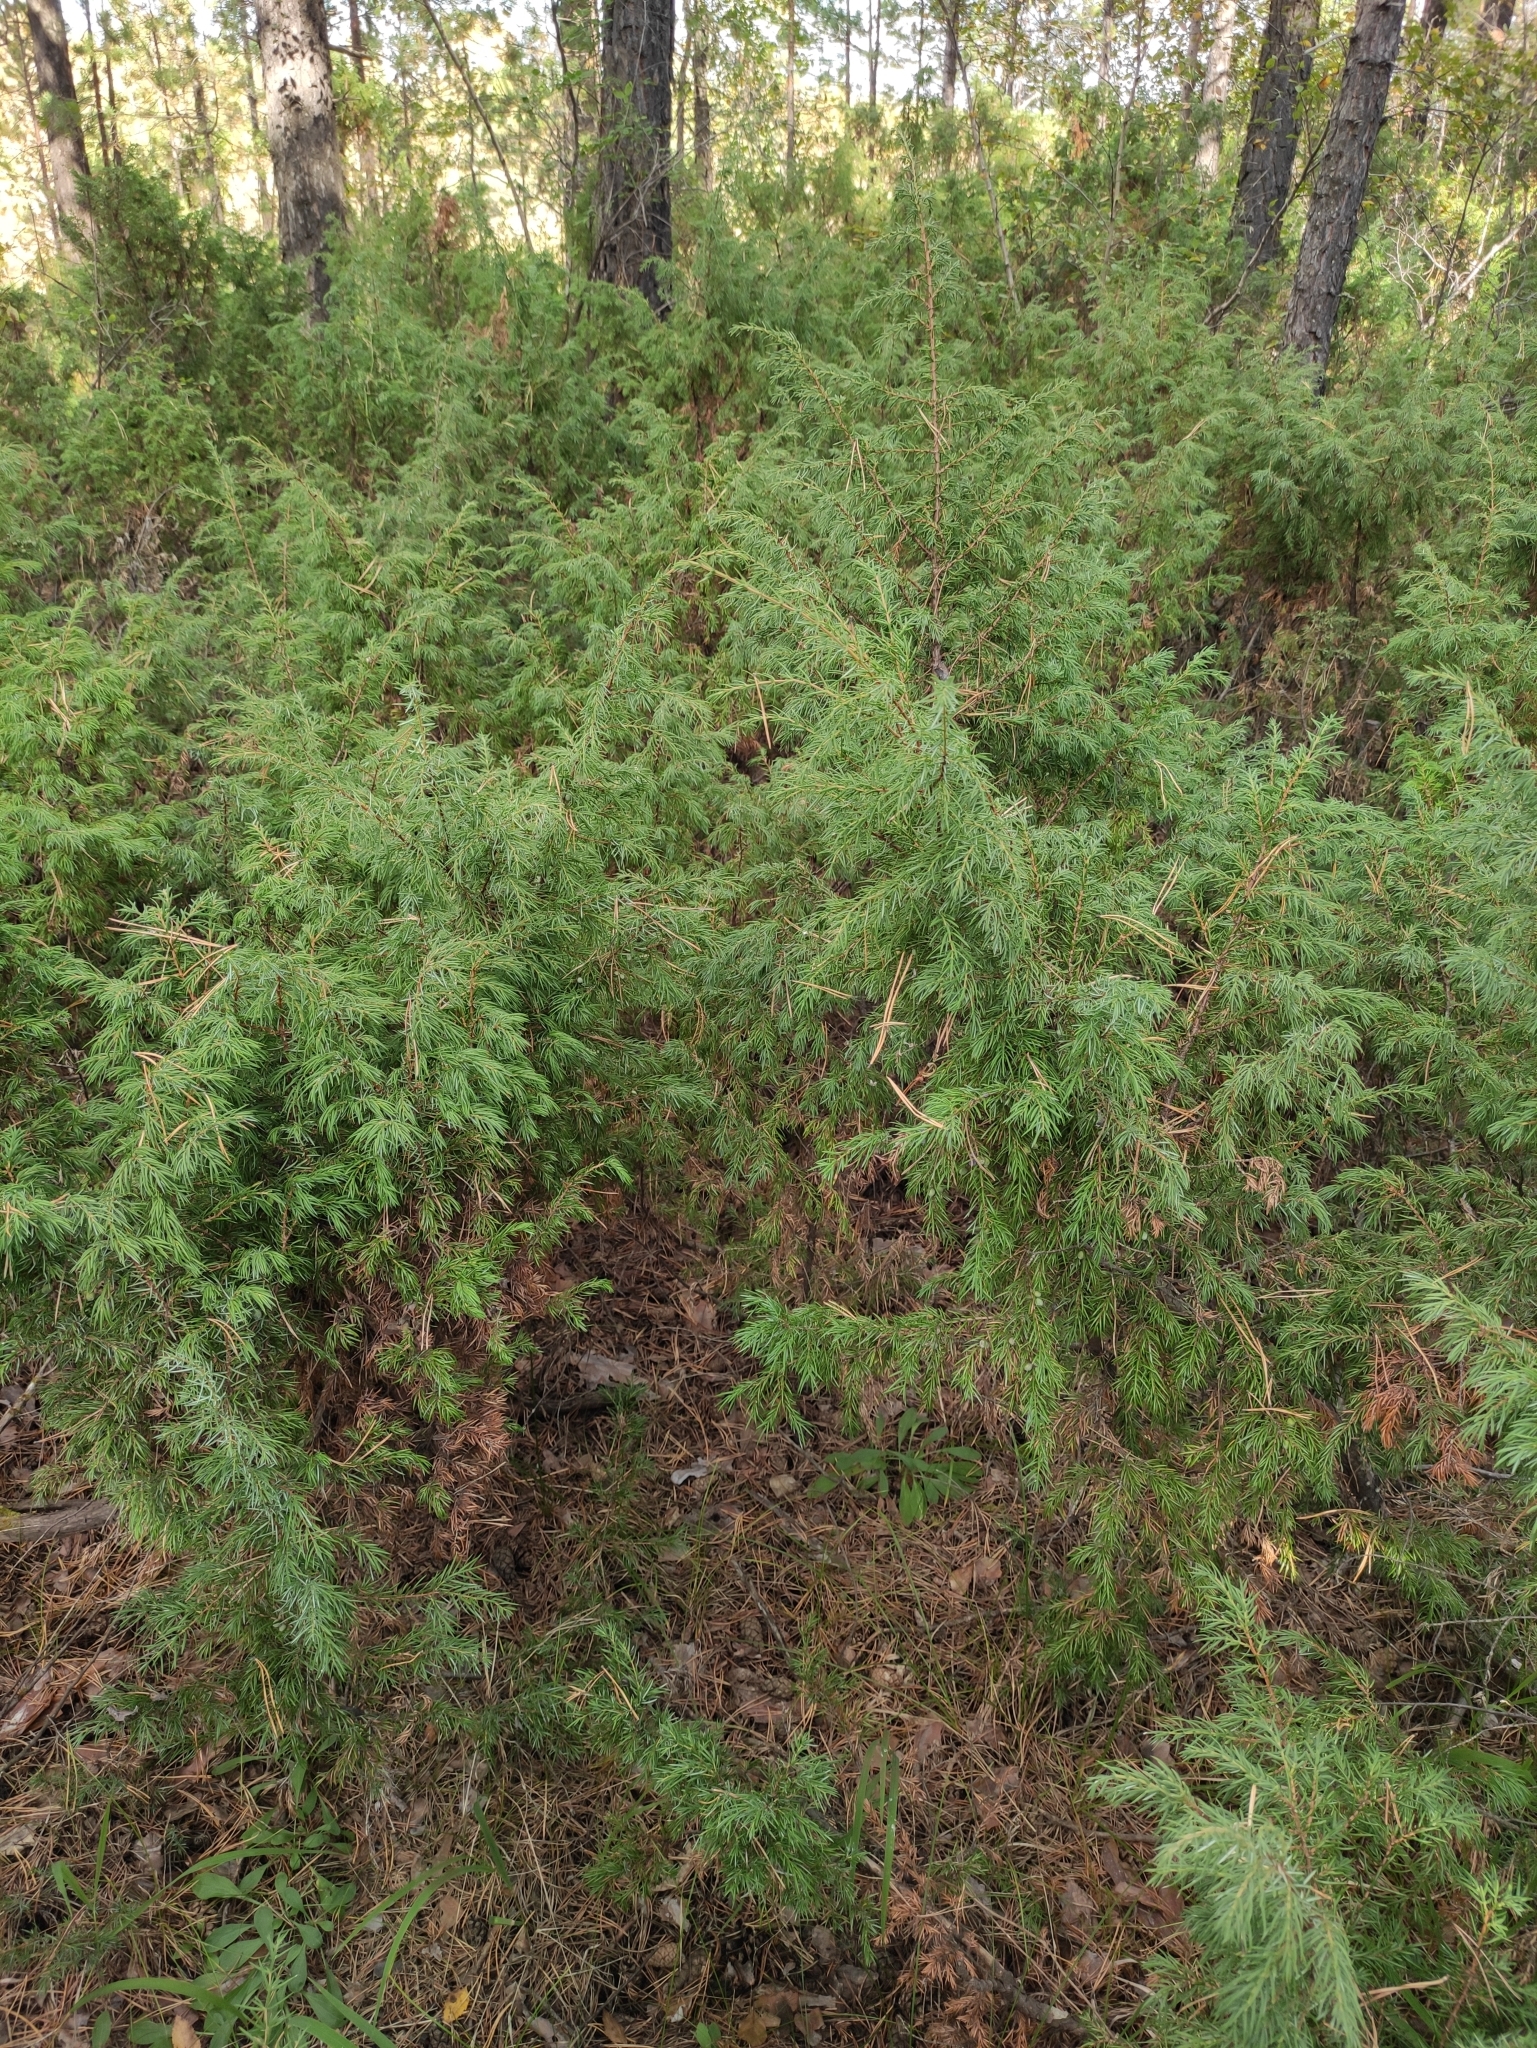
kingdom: Plantae
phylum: Tracheophyta
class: Pinopsida
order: Pinales
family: Cupressaceae
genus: Juniperus
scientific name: Juniperus communis
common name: Common juniper
